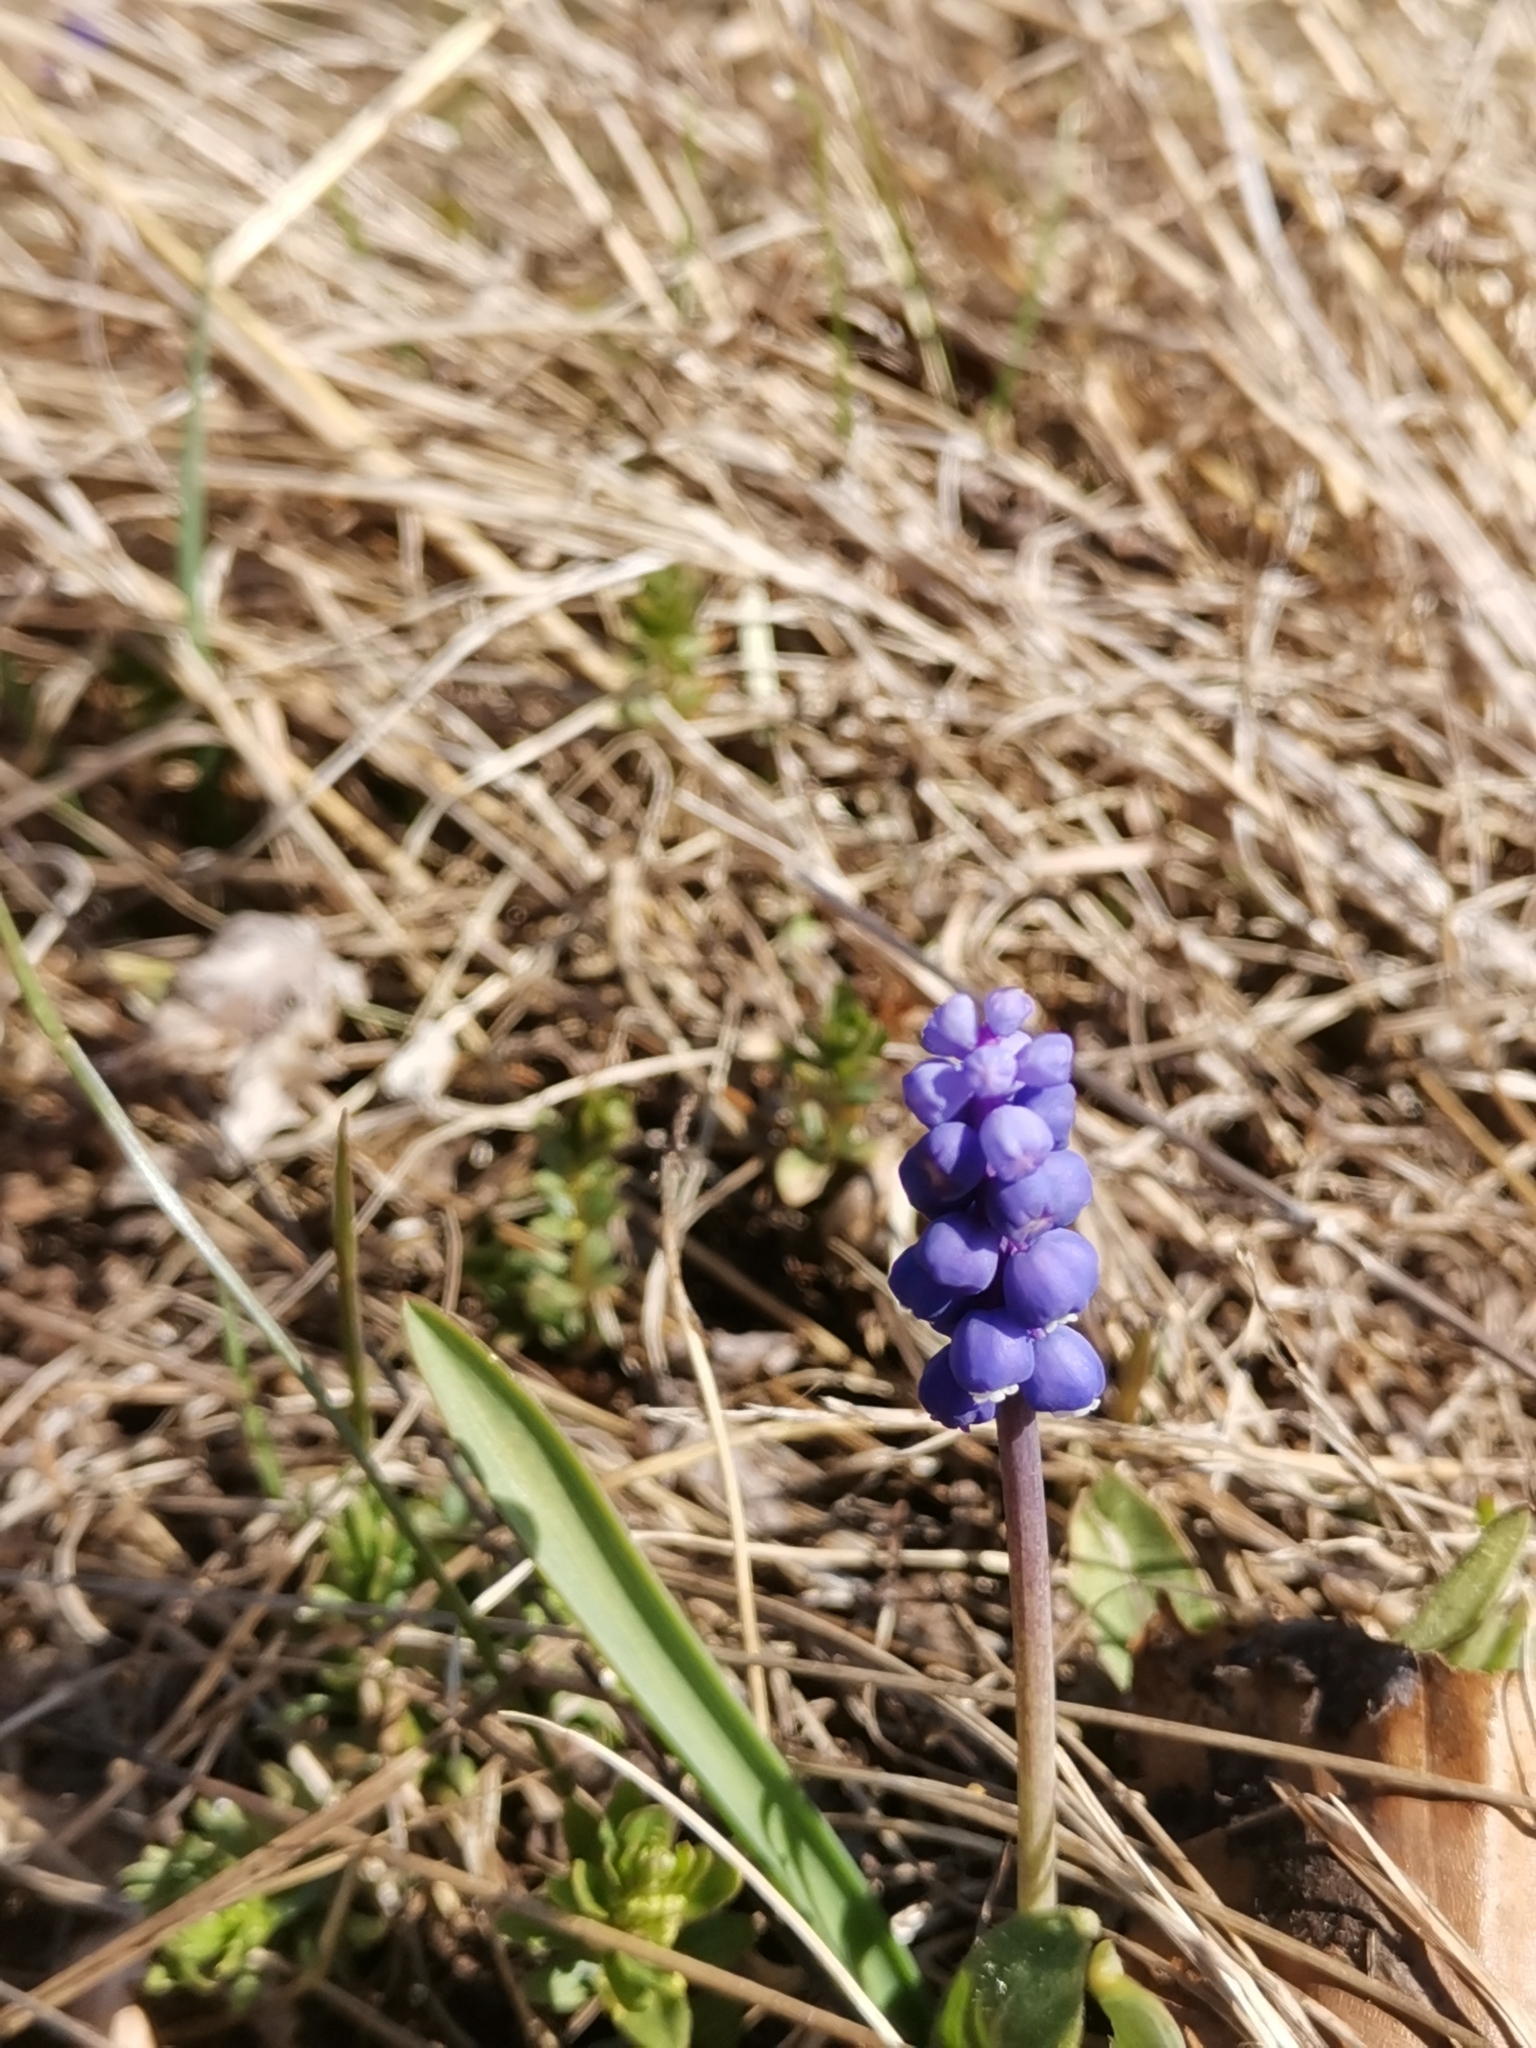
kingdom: Plantae
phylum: Tracheophyta
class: Liliopsida
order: Asparagales
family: Asparagaceae
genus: Muscari
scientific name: Muscari botryoides
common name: Compact grape-hyacinth
